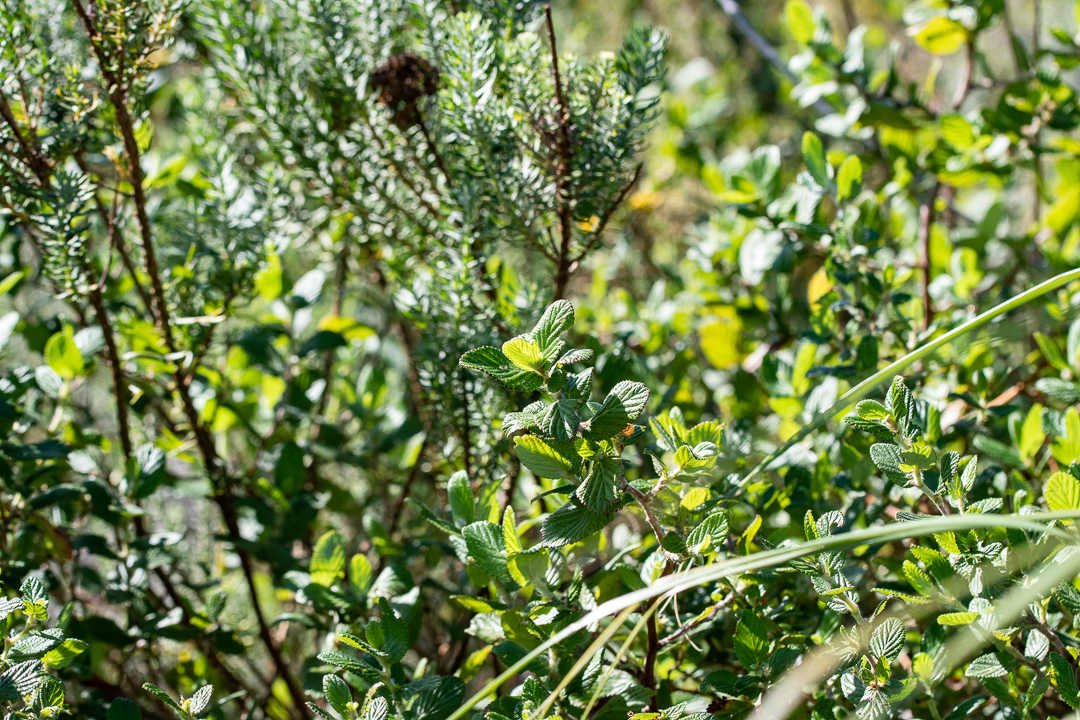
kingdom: Plantae
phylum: Tracheophyta
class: Magnoliopsida
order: Rosales
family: Rosaceae
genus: Cliffortia
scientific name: Cliffortia odorata
